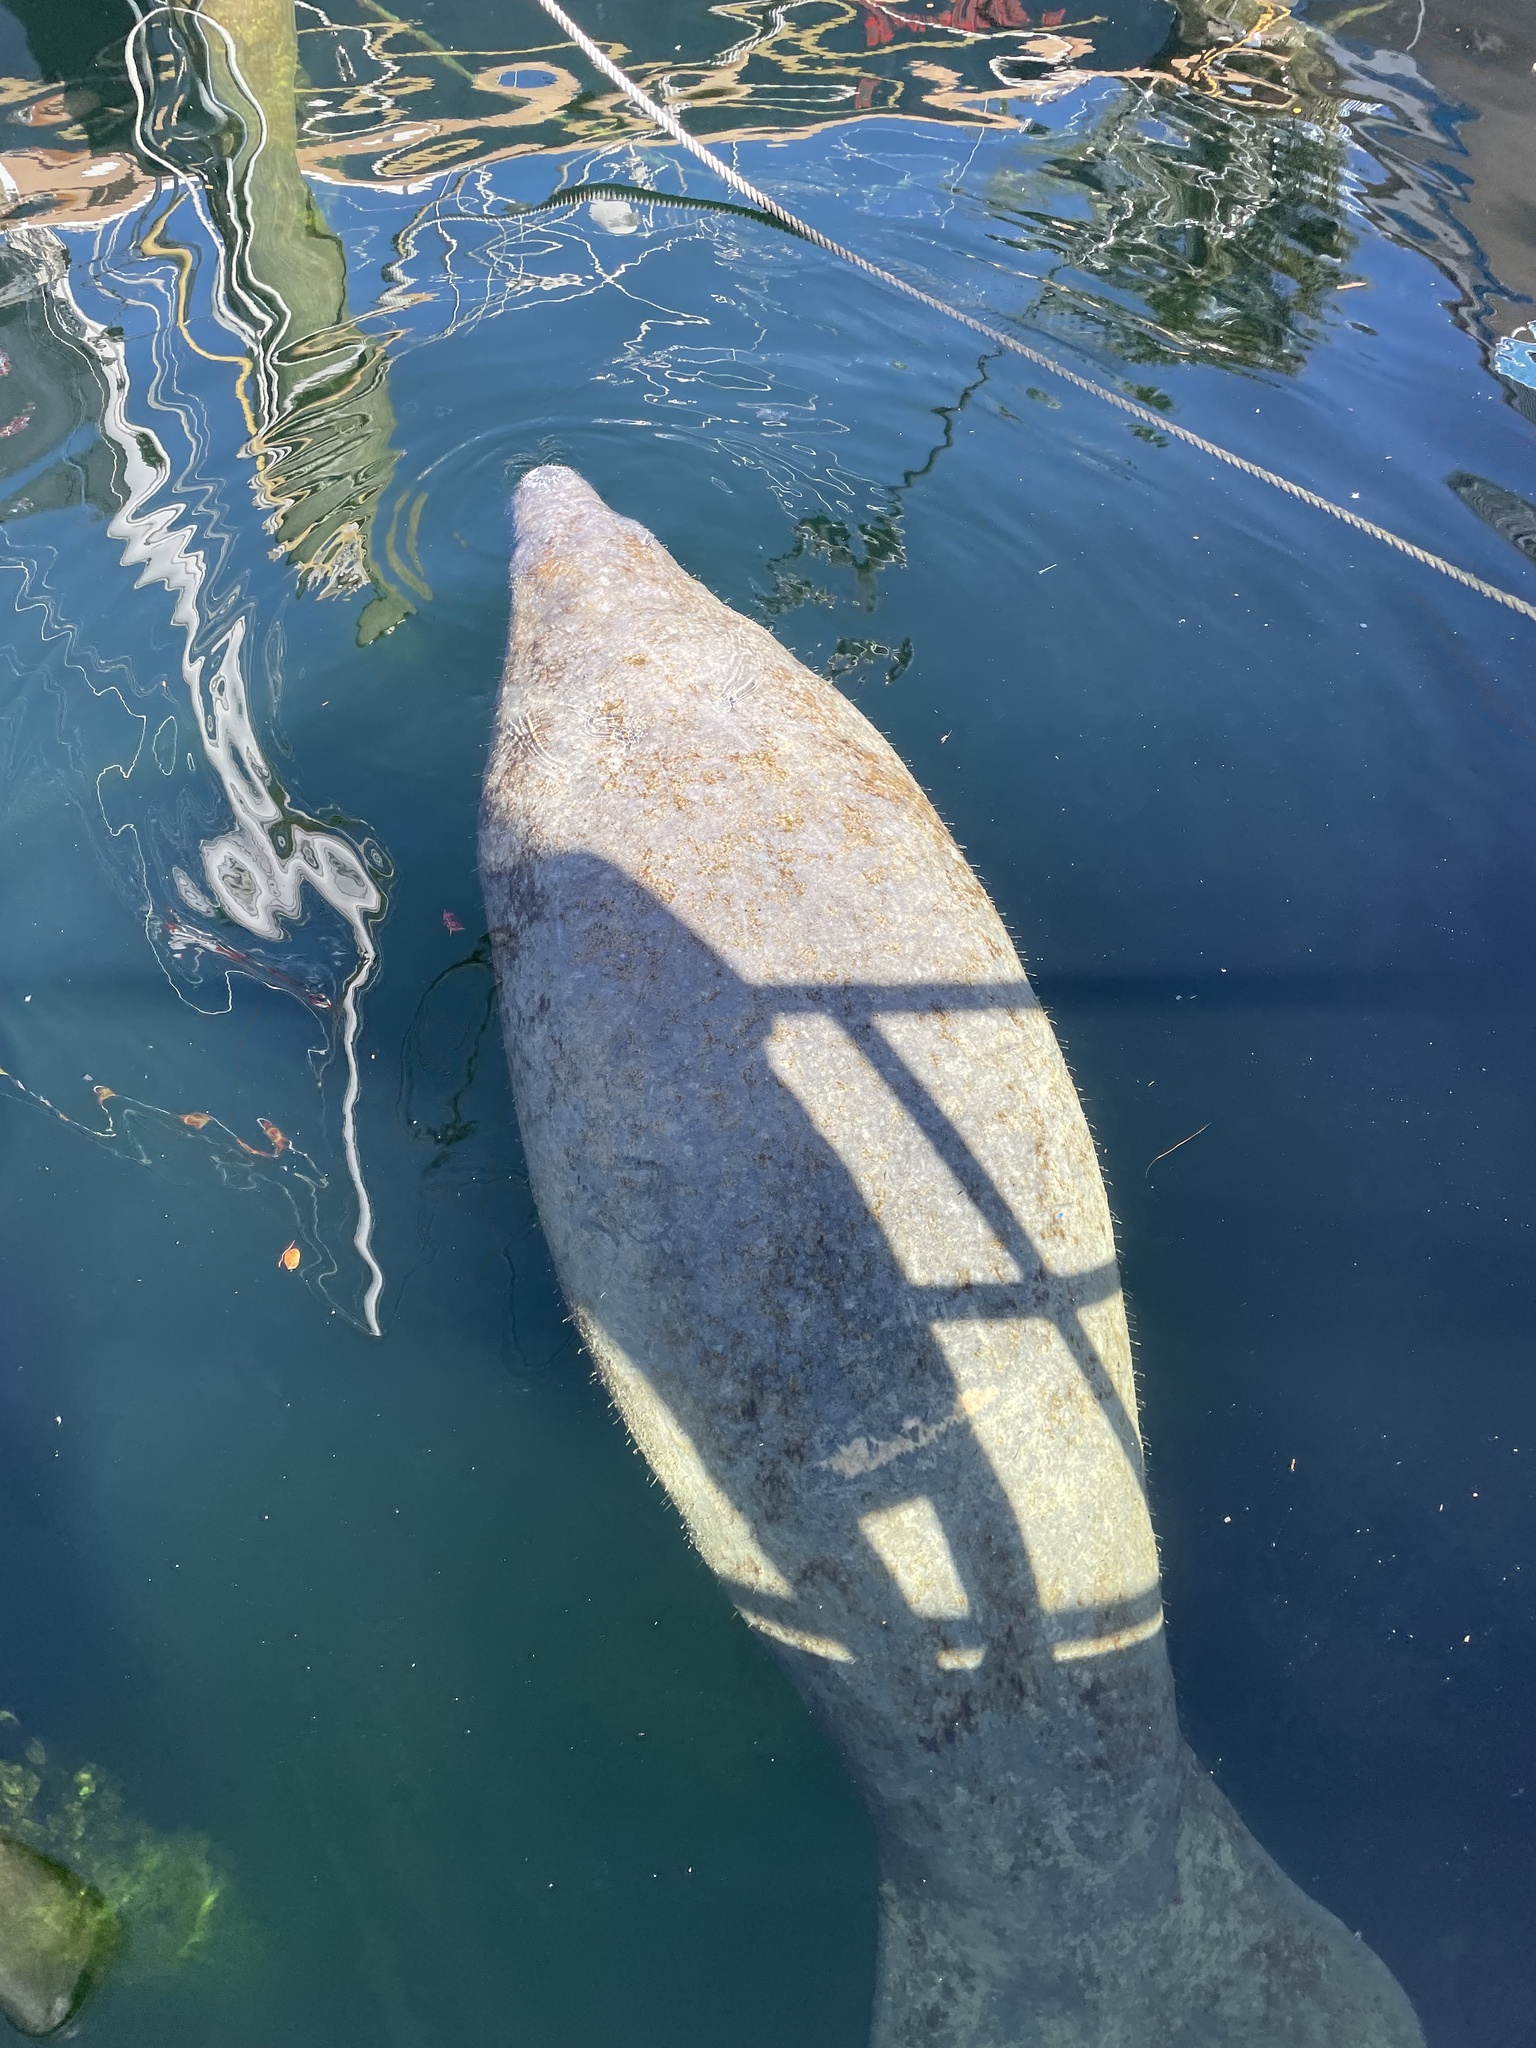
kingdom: Animalia
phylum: Chordata
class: Mammalia
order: Sirenia
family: Trichechidae
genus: Trichechus
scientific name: Trichechus manatus
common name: West indian manatee
